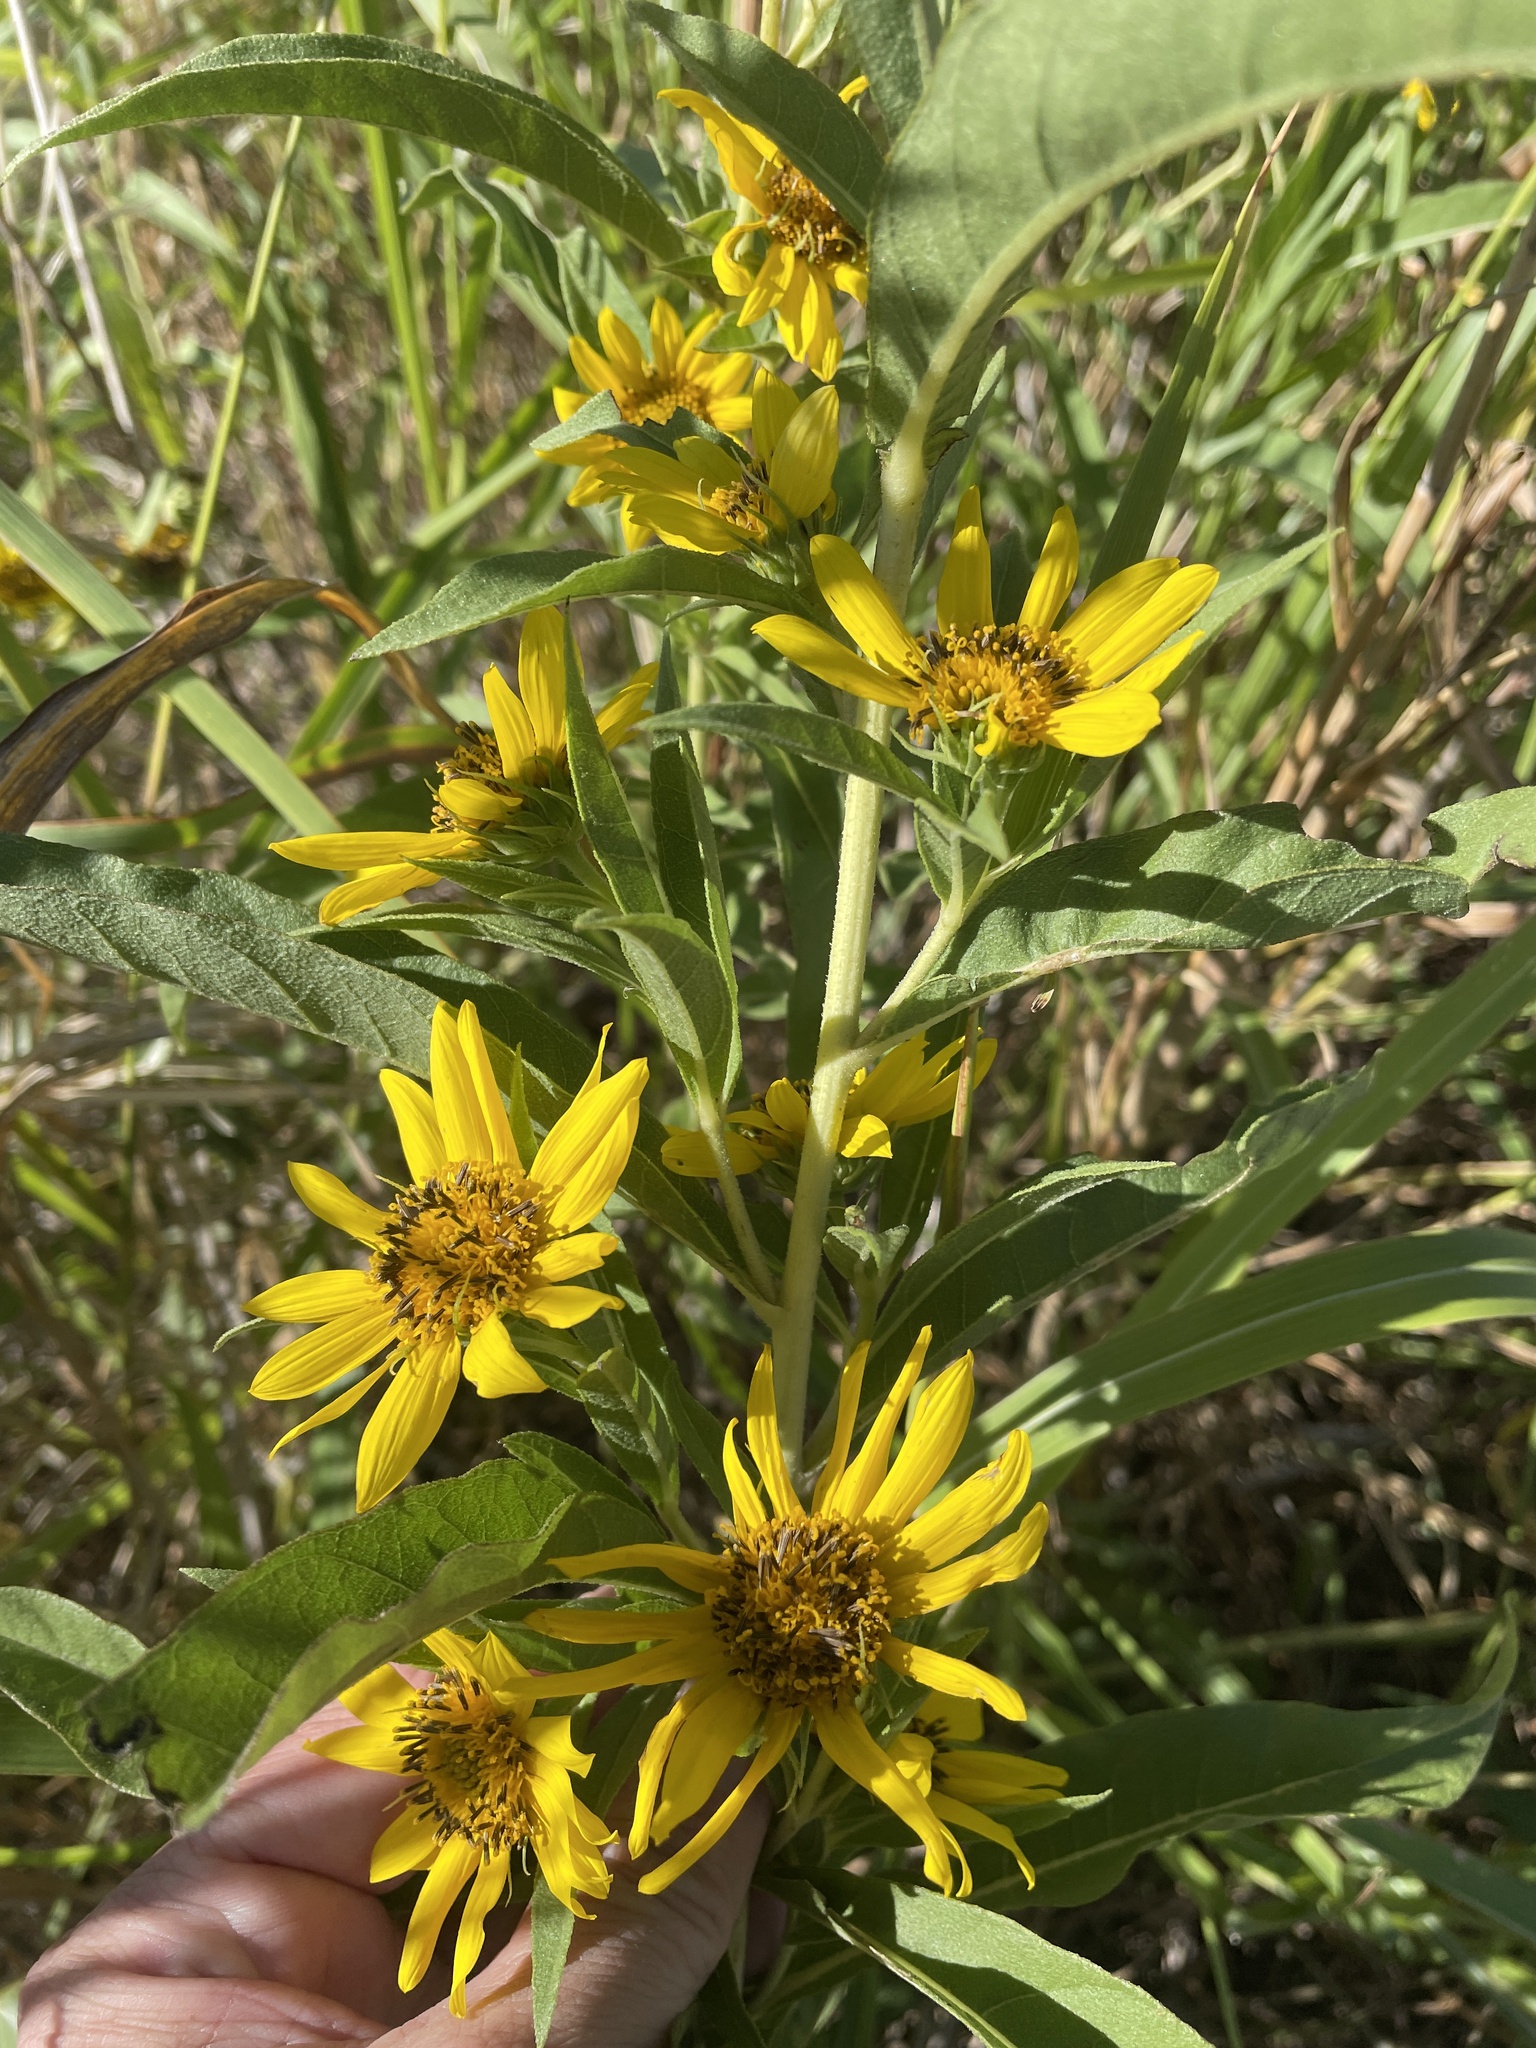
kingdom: Plantae
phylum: Tracheophyta
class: Magnoliopsida
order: Asterales
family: Asteraceae
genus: Helianthus
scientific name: Helianthus maximiliani
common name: Maximilian's sunflower
